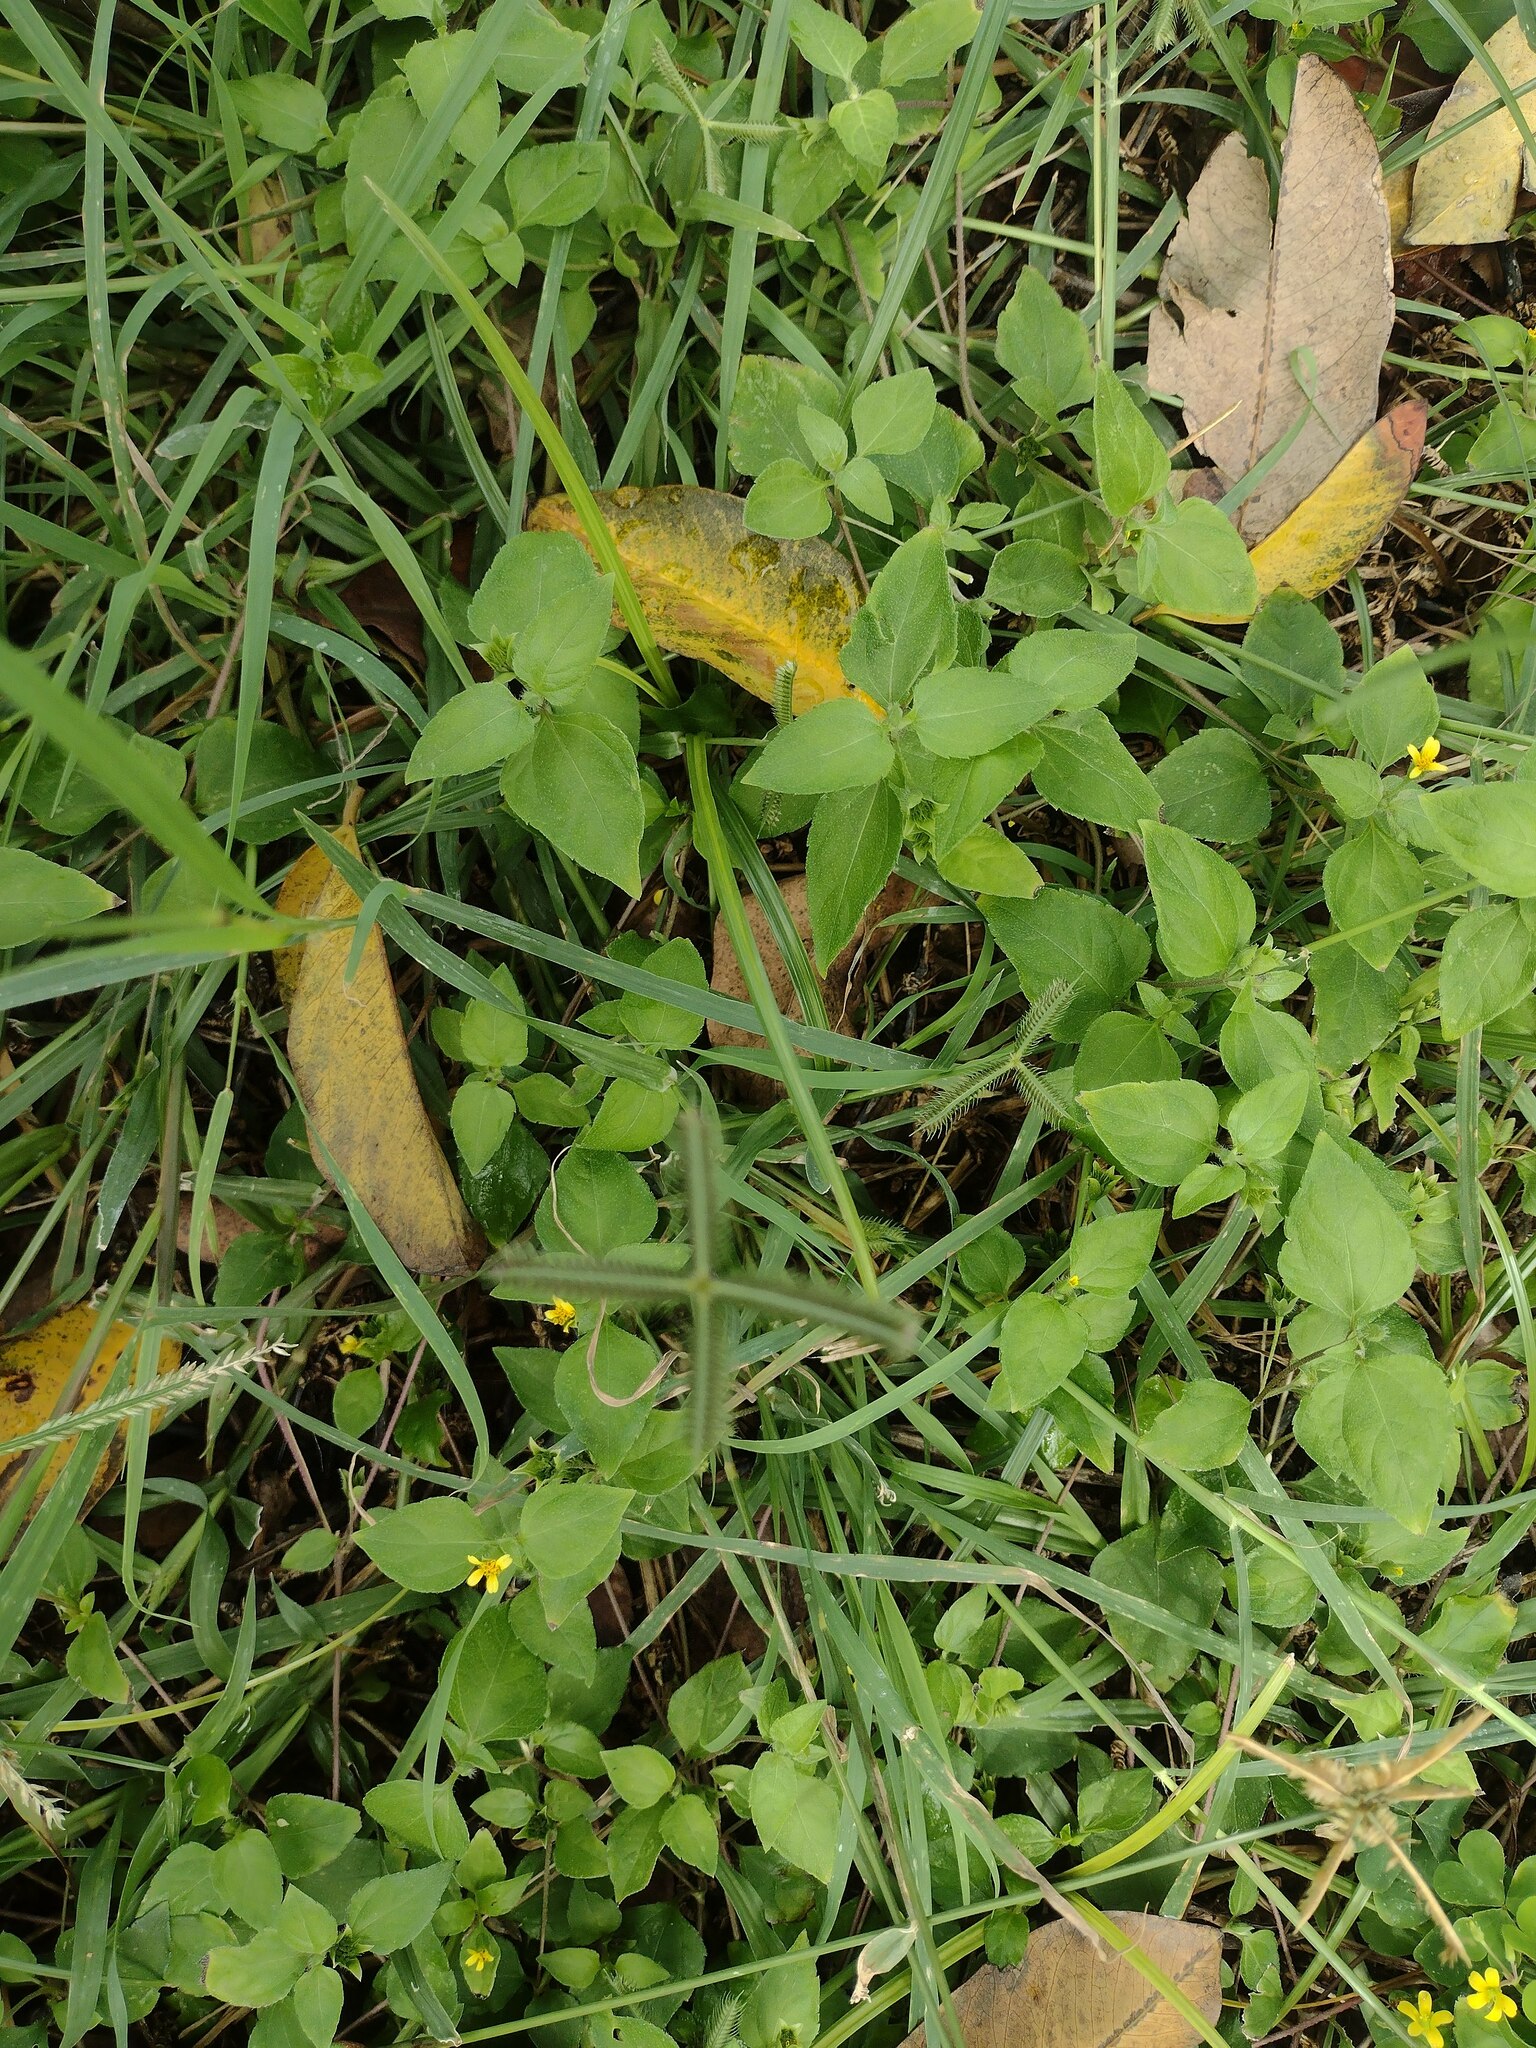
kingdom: Plantae
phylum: Tracheophyta
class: Magnoliopsida
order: Asterales
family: Asteraceae
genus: Calyptocarpus
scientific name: Calyptocarpus vialis
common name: Straggler daisy
